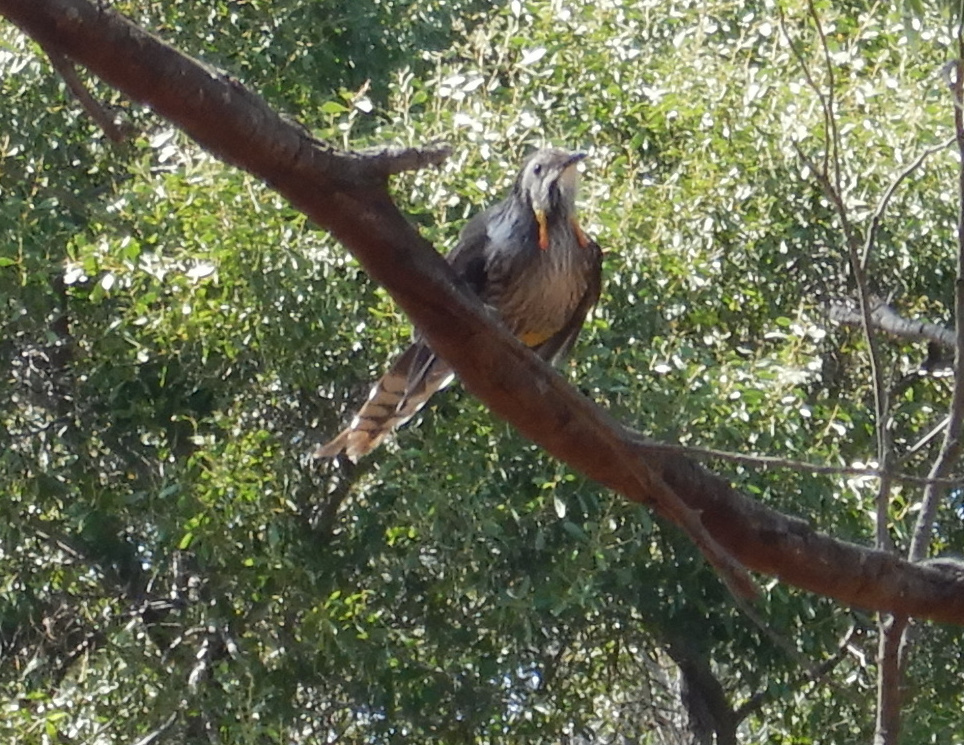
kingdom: Animalia
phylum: Chordata
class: Aves
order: Passeriformes
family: Meliphagidae
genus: Anthochaera
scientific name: Anthochaera paradoxa
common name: Yellow wattlebird
